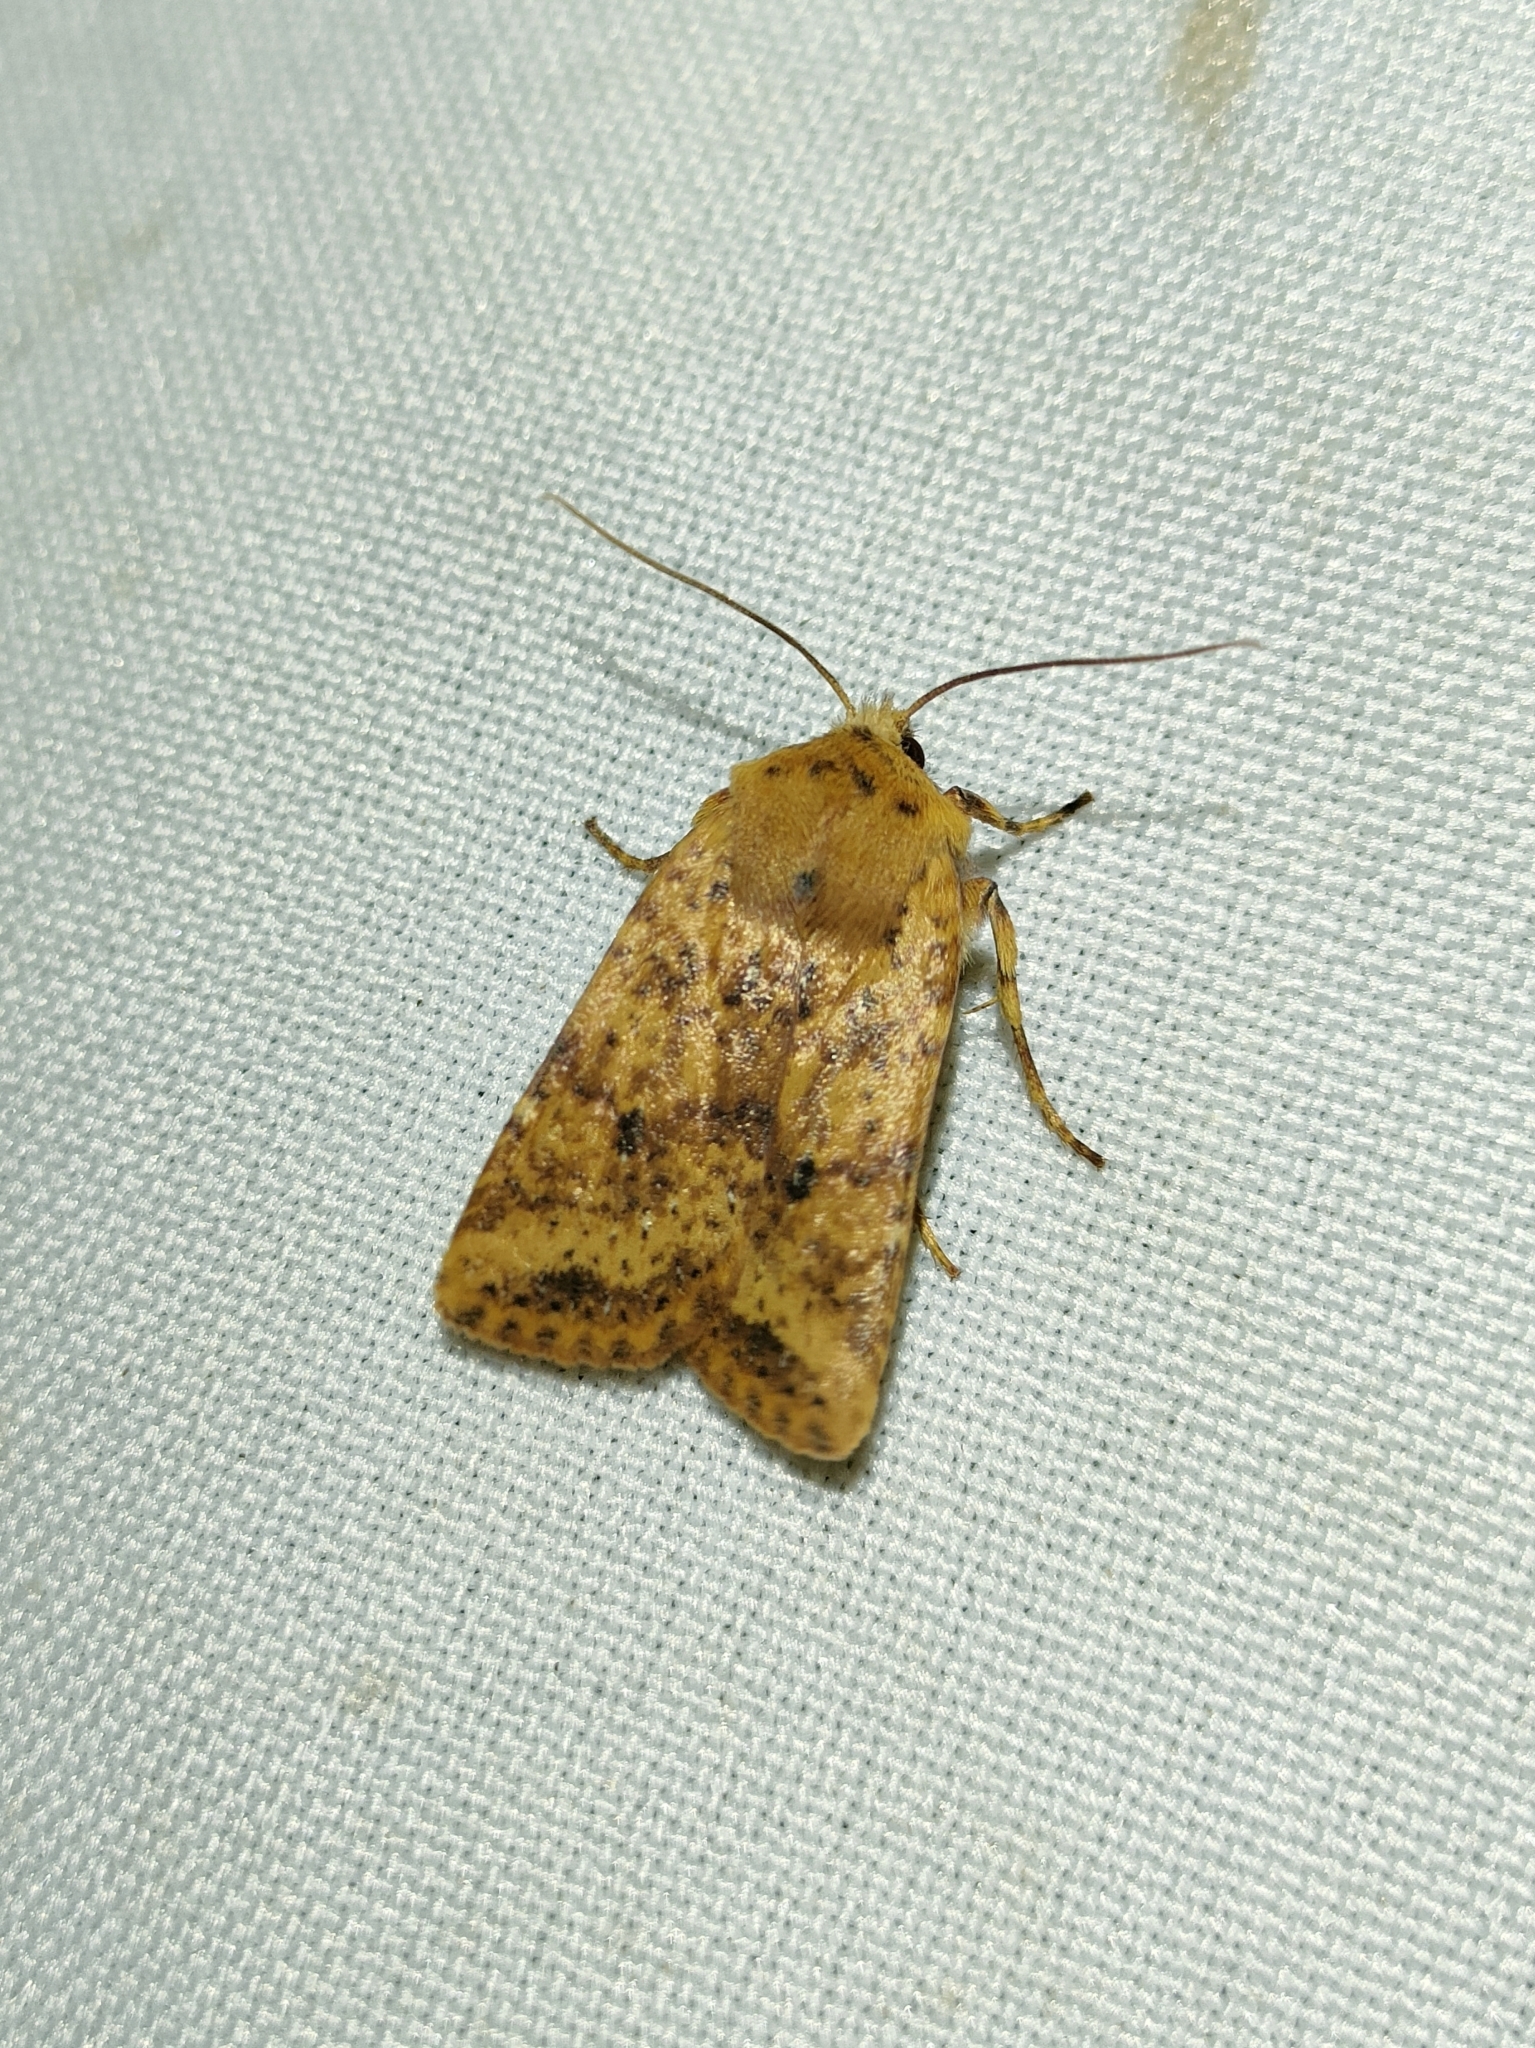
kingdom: Animalia
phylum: Arthropoda
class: Insecta
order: Lepidoptera
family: Noctuidae
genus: Conistra
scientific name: Conistra rubiginea
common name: Dotted chestnut
